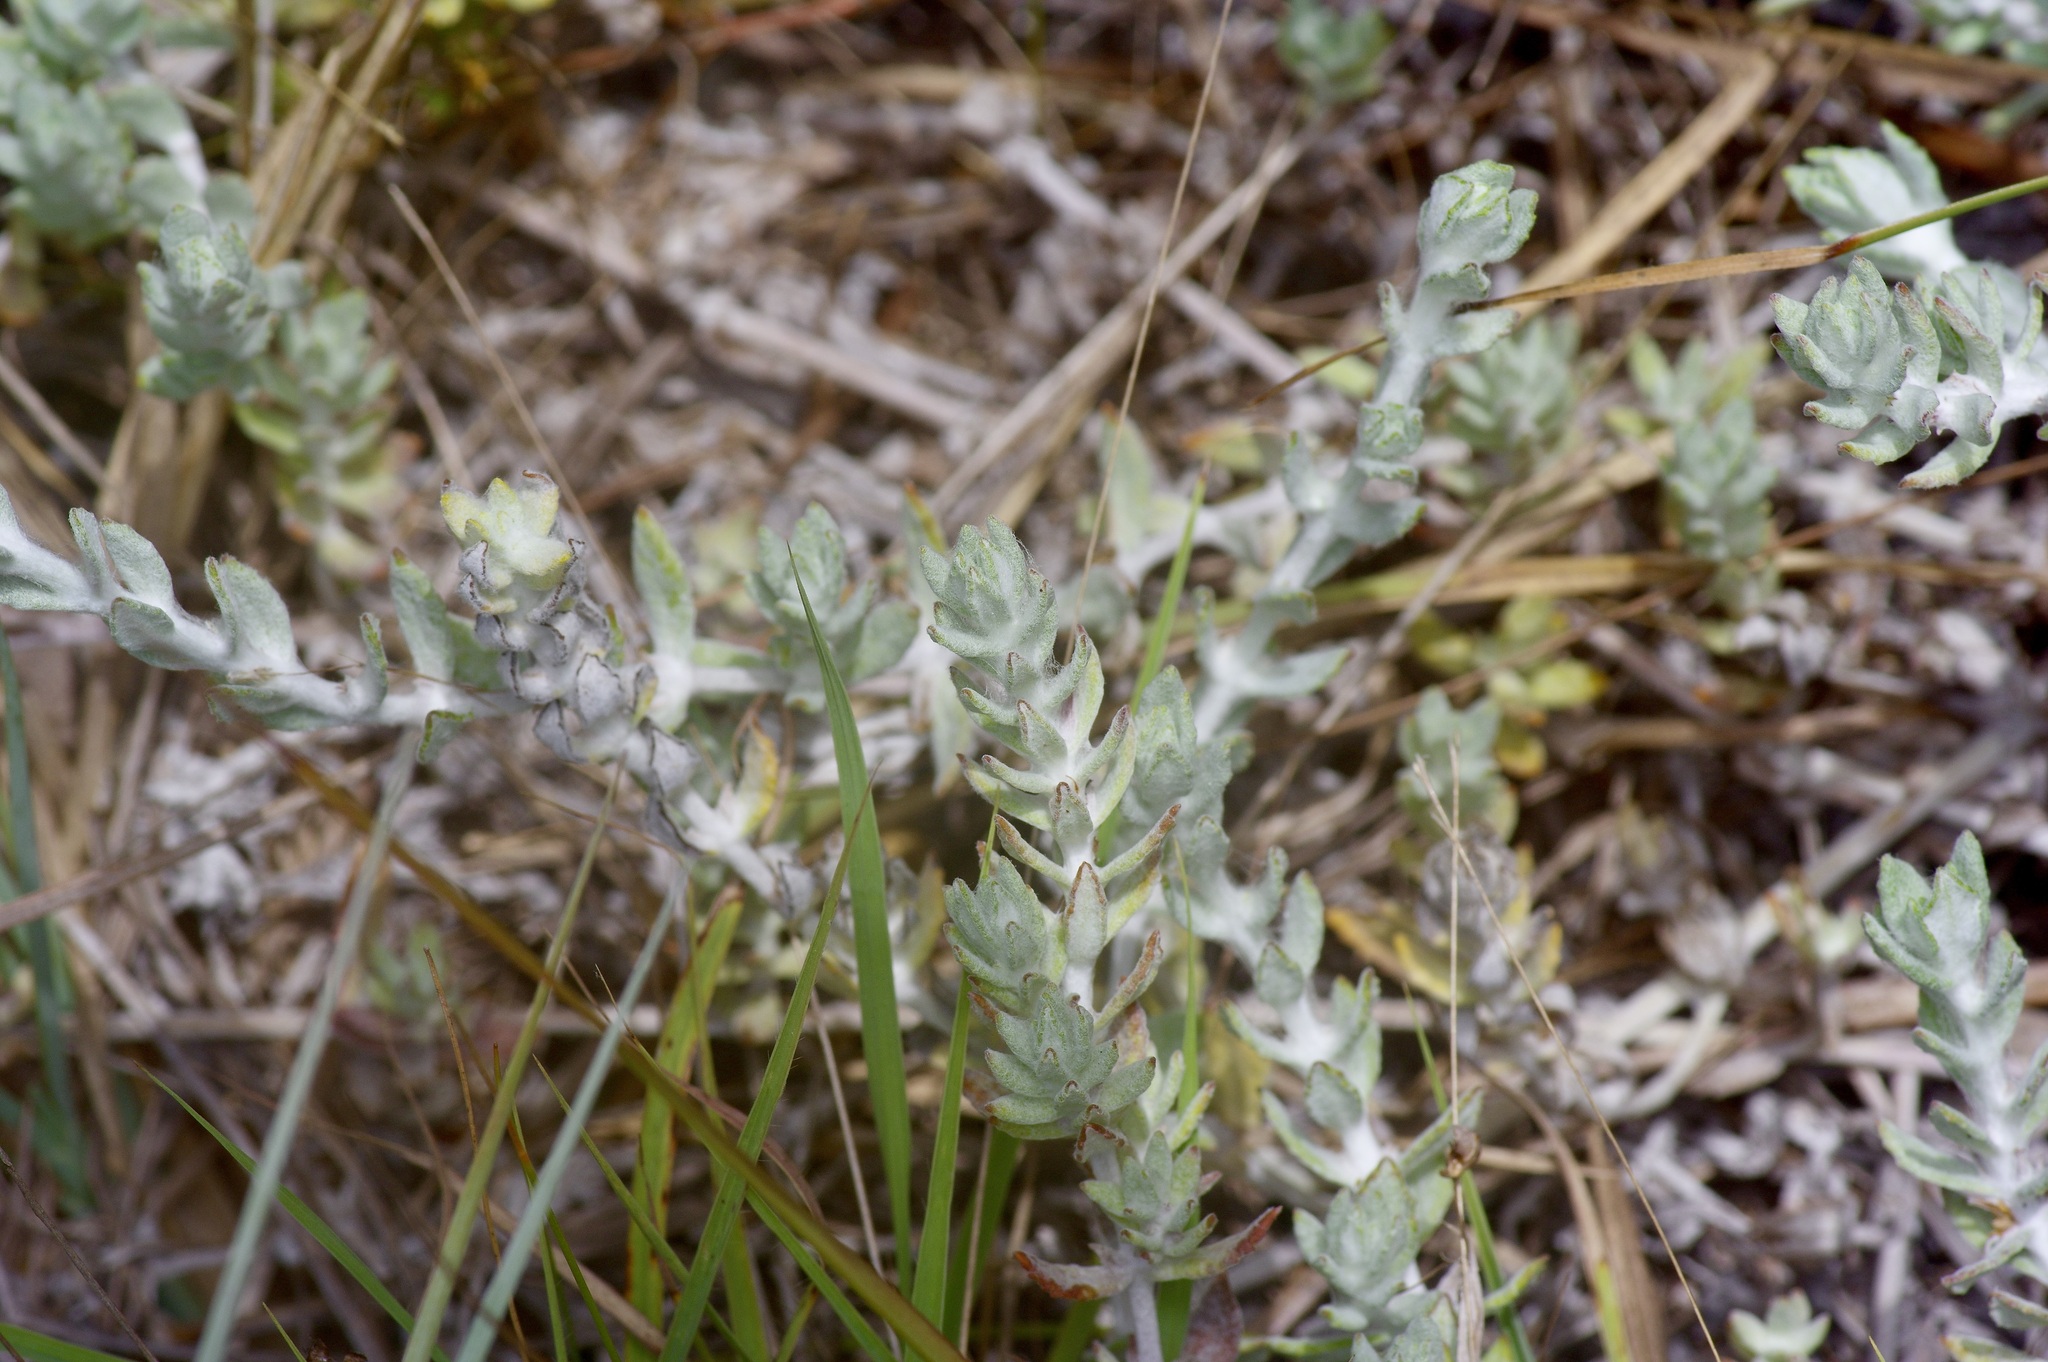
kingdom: Plantae
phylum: Tracheophyta
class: Magnoliopsida
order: Lamiales
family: Plantaginaceae
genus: Stemodia
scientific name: Stemodia lanata
